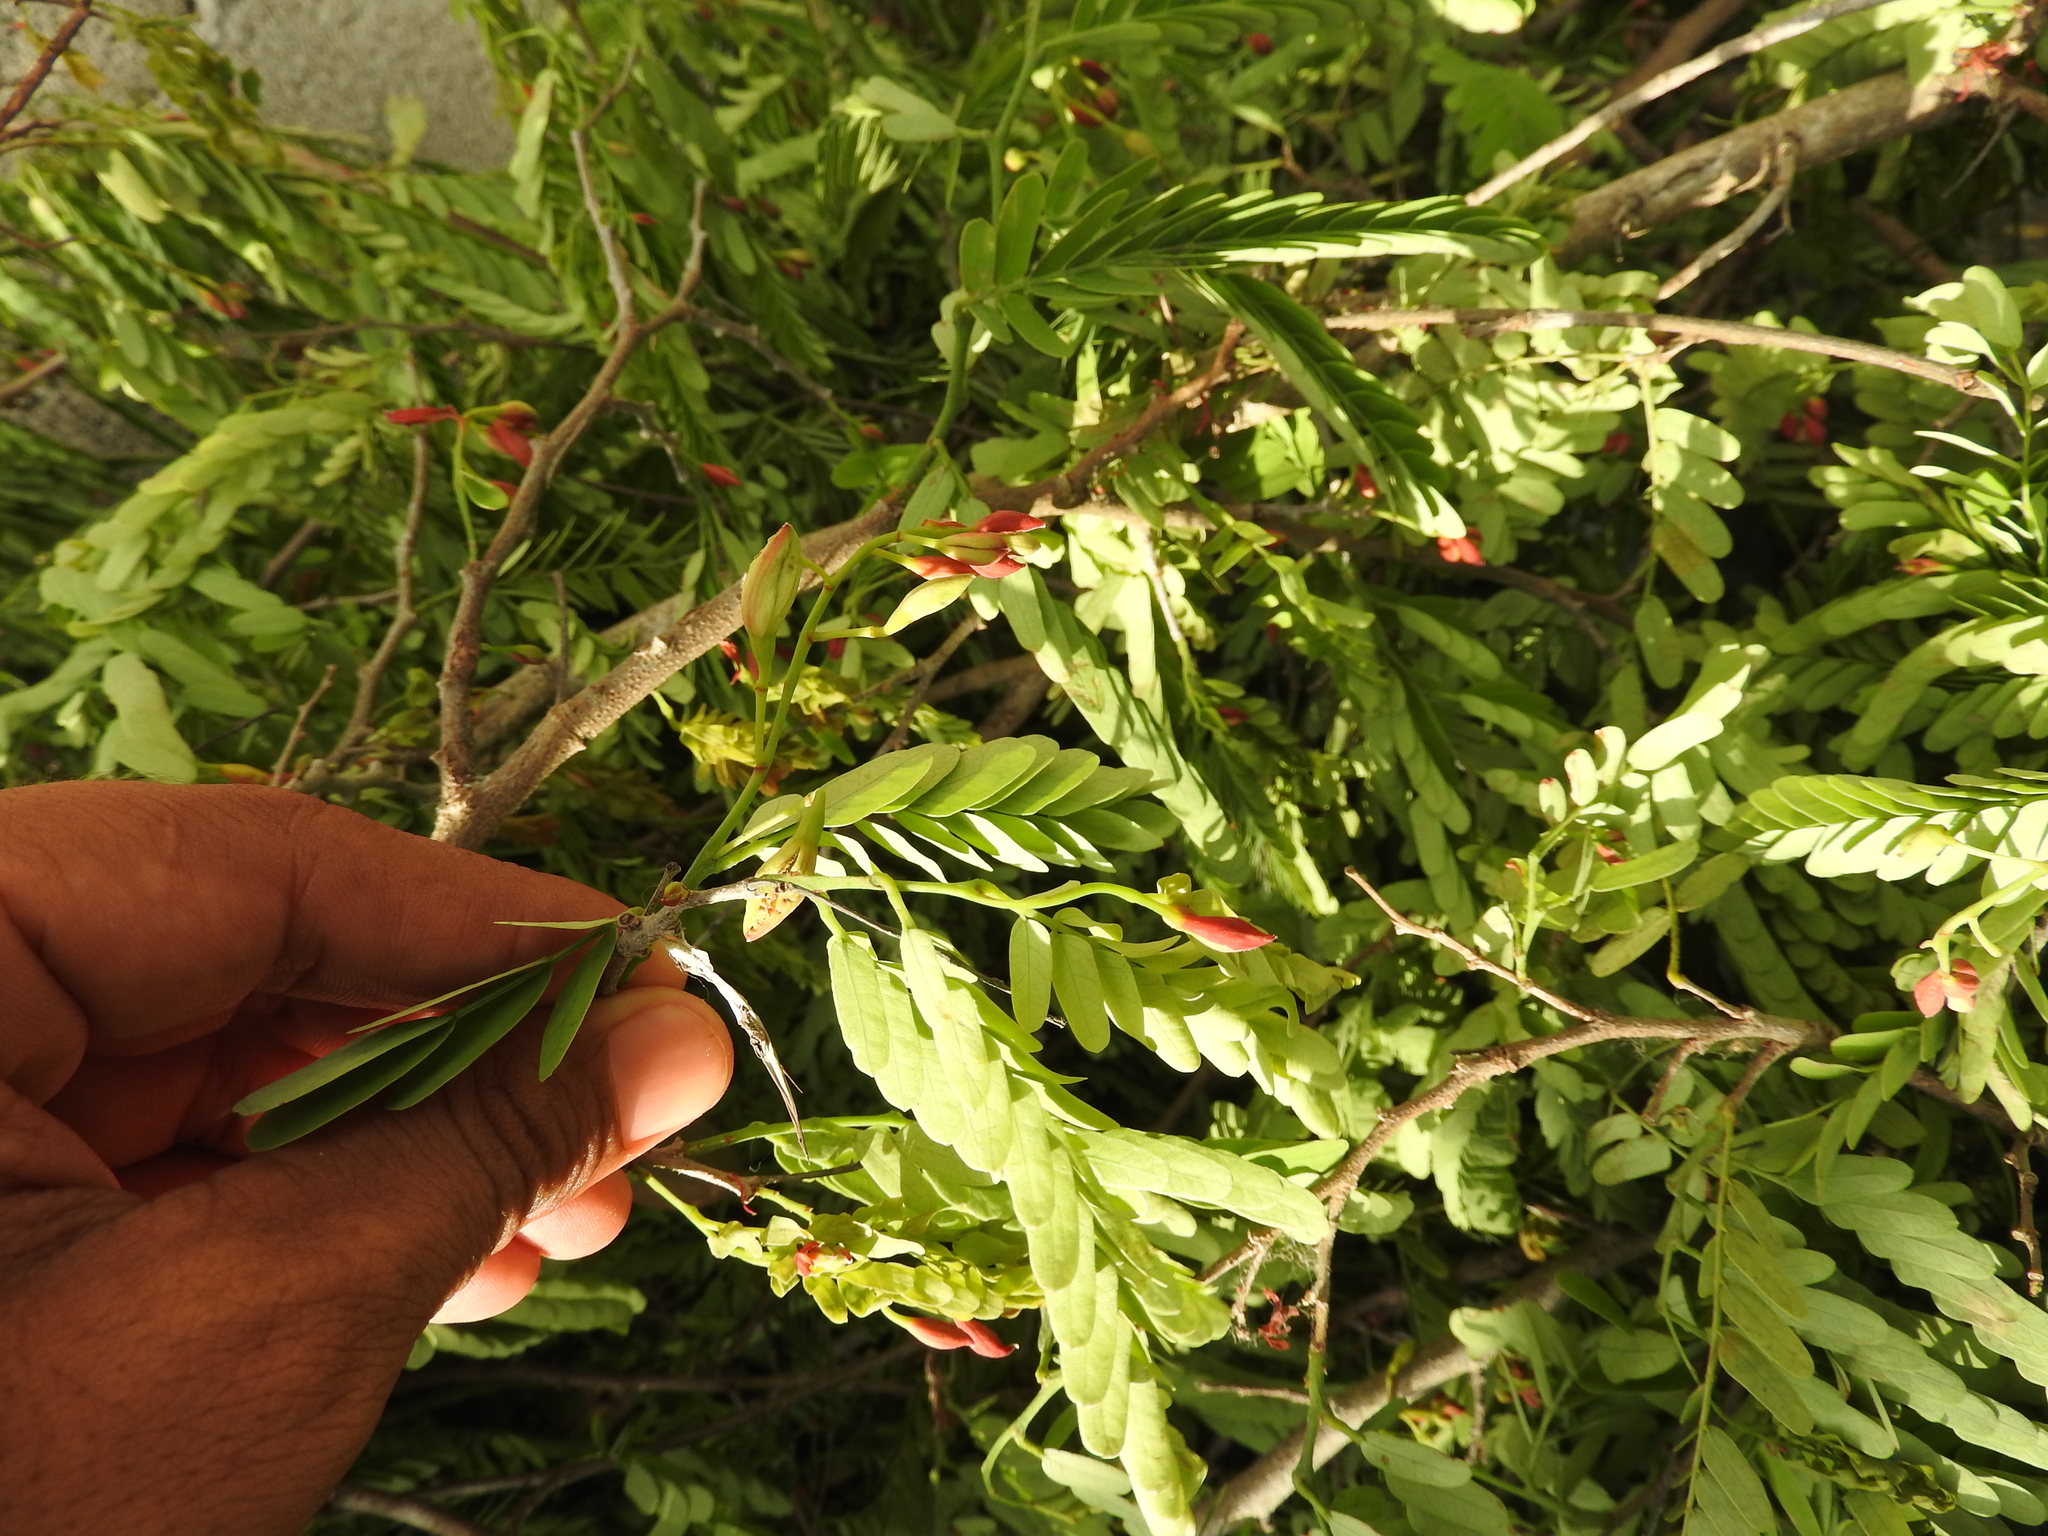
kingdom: Plantae
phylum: Tracheophyta
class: Magnoliopsida
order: Fabales
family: Fabaceae
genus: Tamarindus
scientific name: Tamarindus indica
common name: Tamarind
